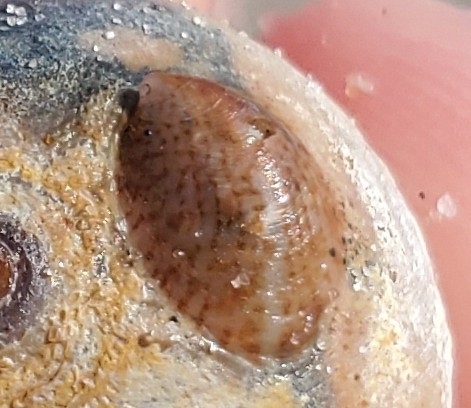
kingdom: Animalia
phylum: Mollusca
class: Gastropoda
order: Littorinimorpha
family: Calyptraeidae
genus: Crepidula
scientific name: Crepidula fornicata
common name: Slipper limpet
